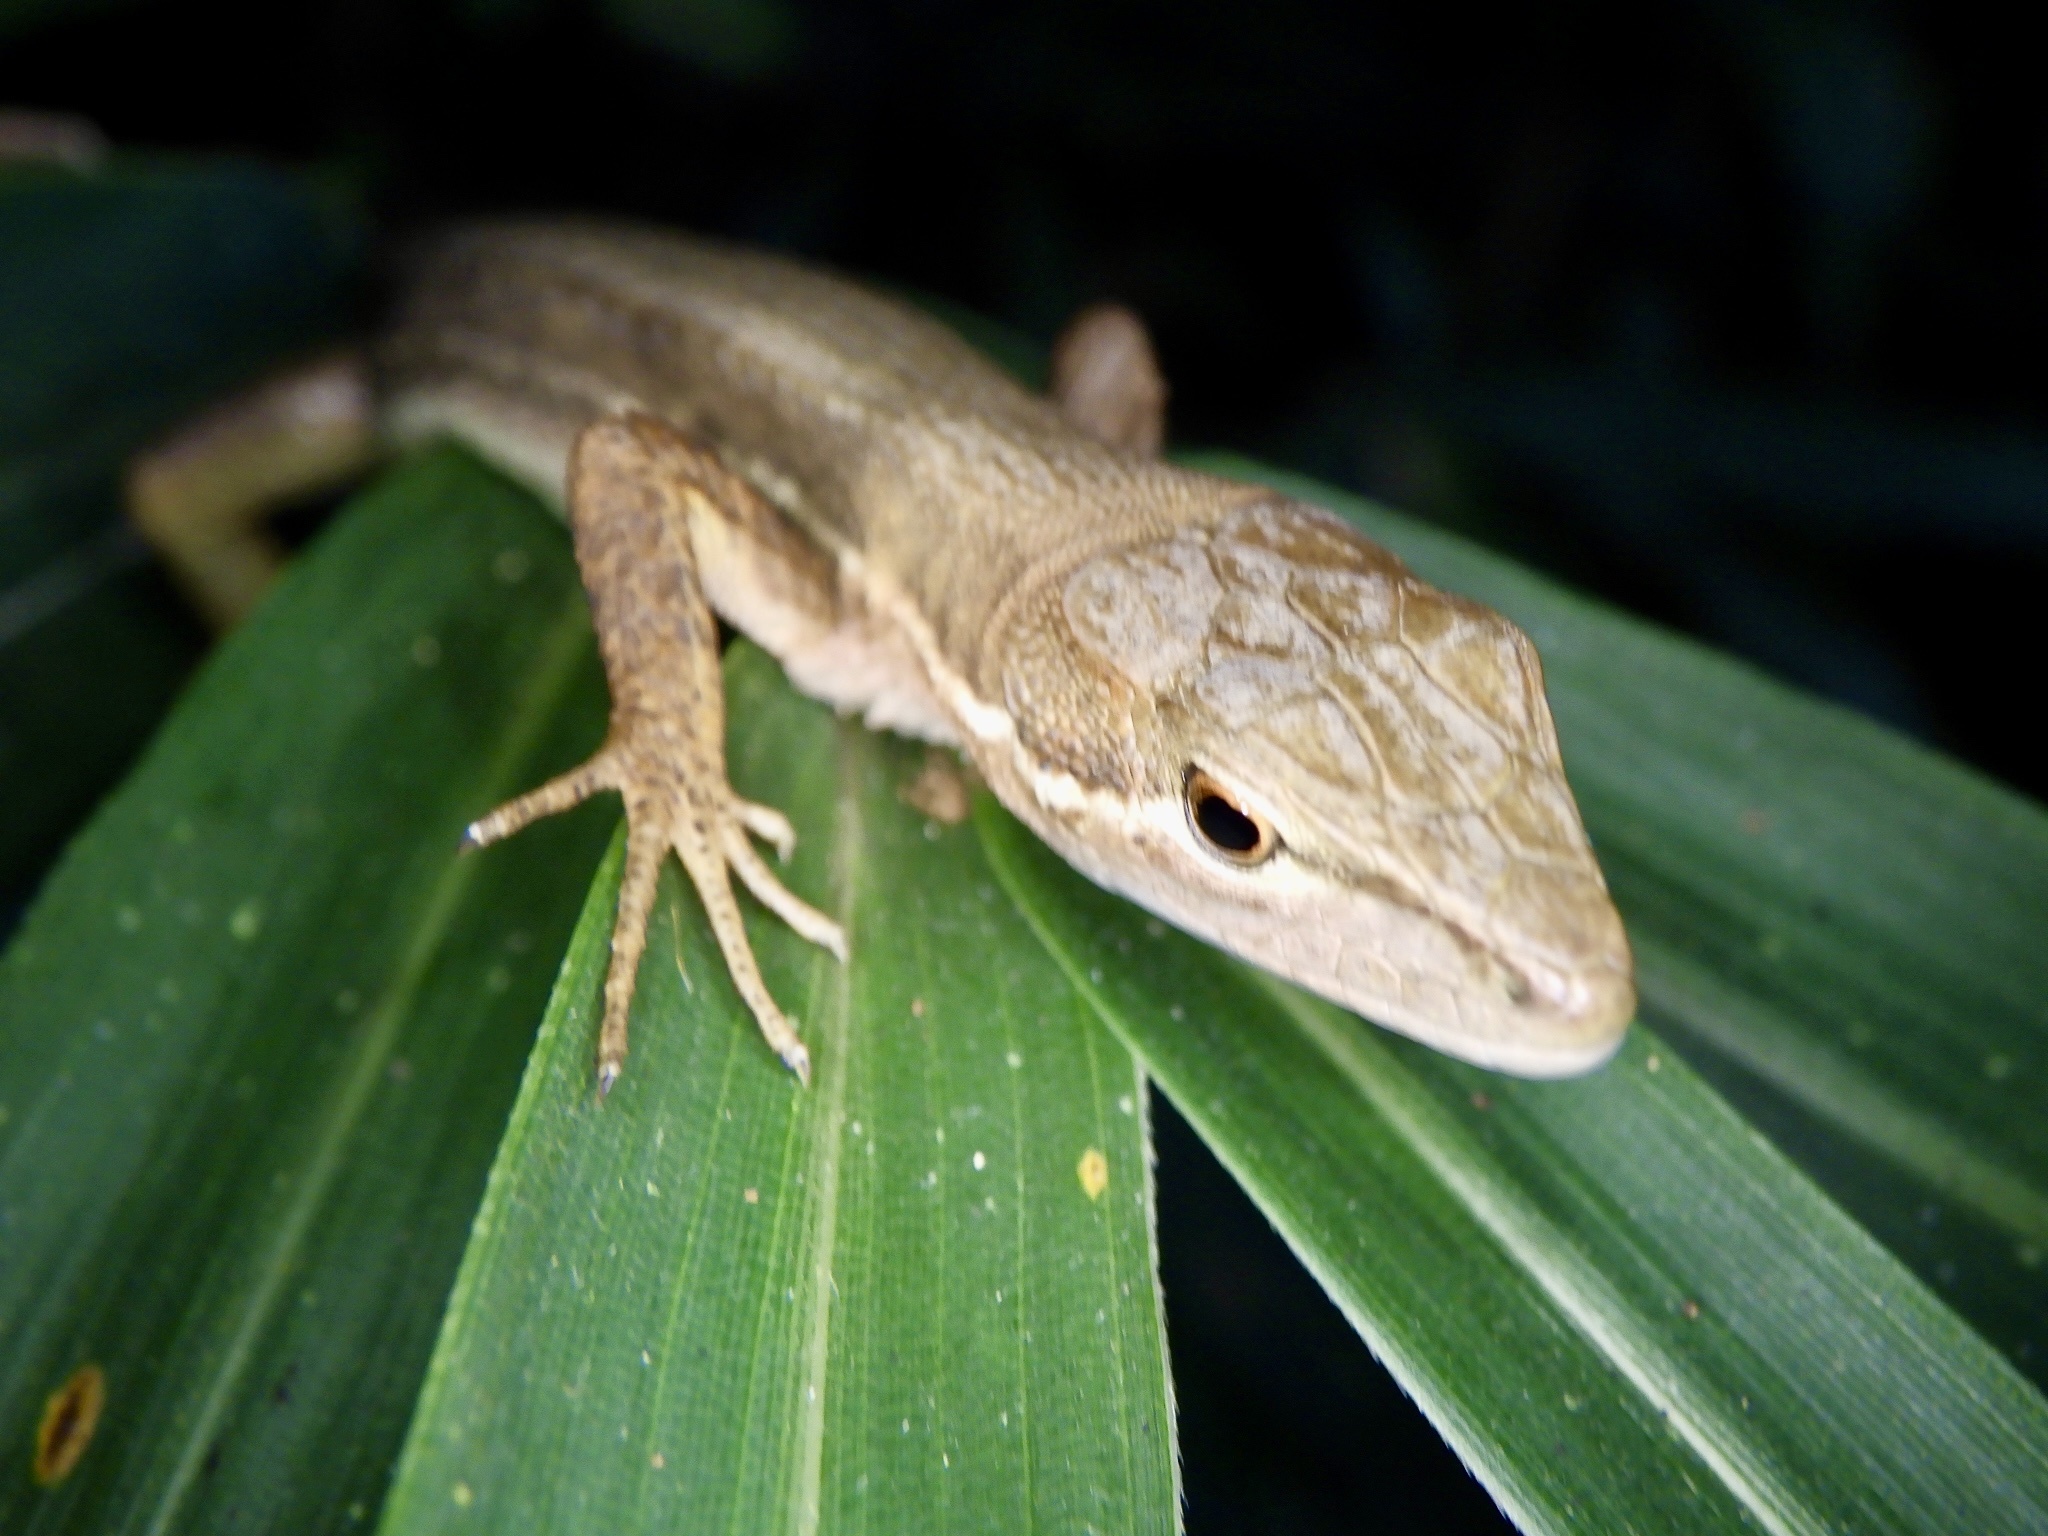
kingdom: Animalia
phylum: Chordata
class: Squamata
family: Lacertidae
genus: Takydromus
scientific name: Takydromus tachydromoides
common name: Japanese grass lizard
